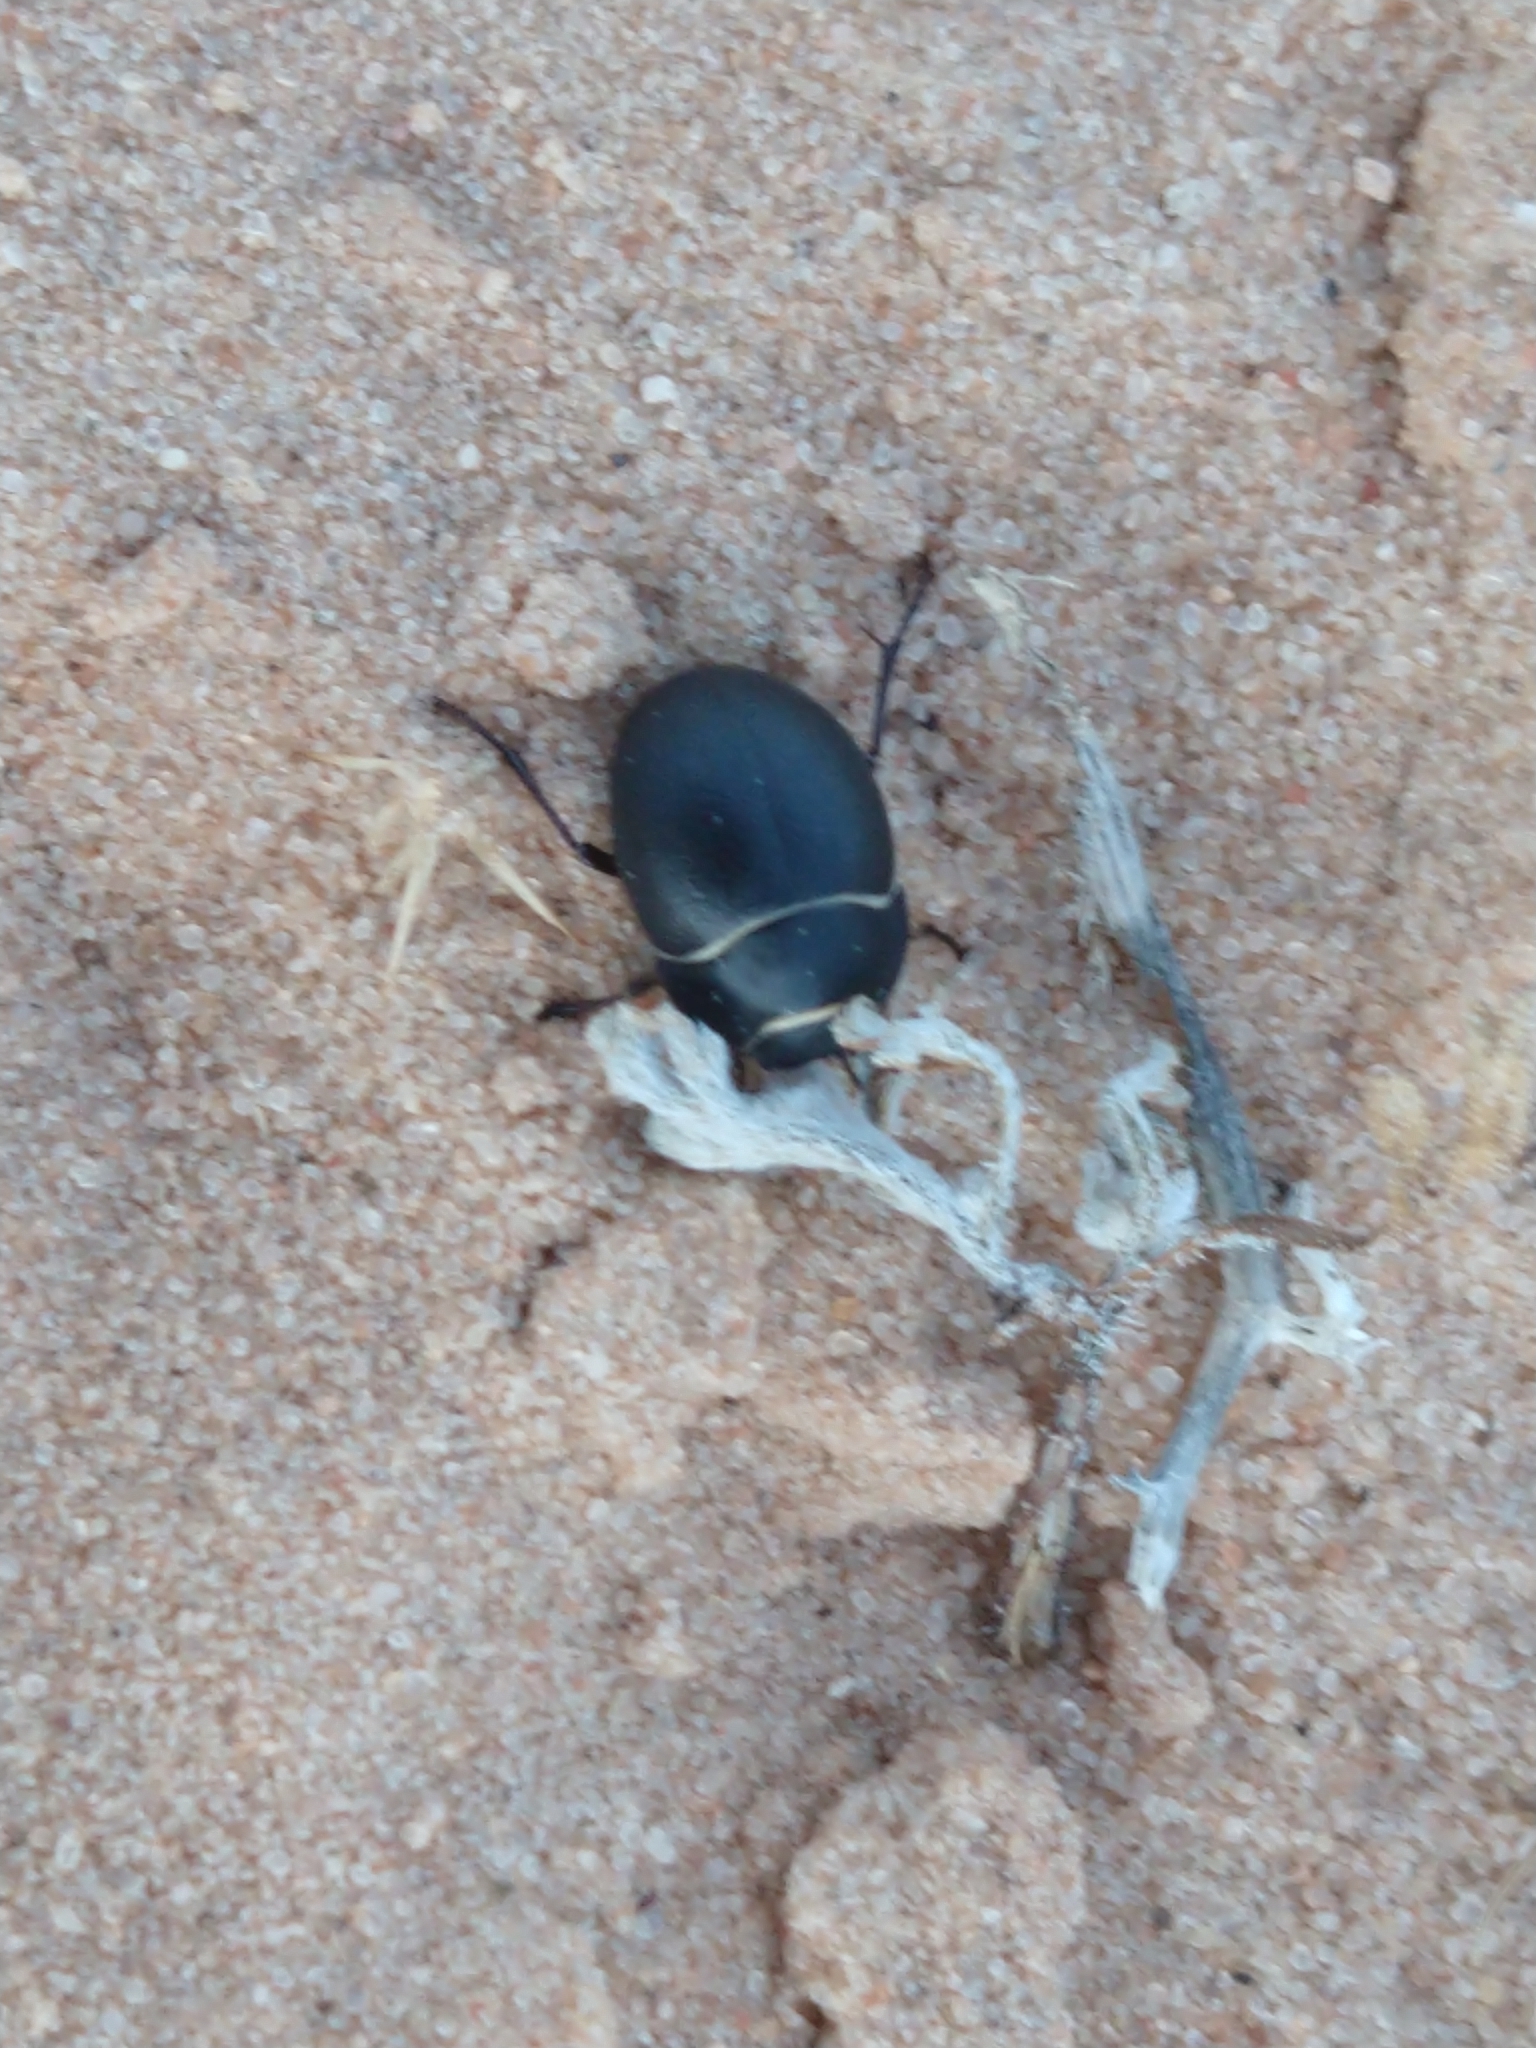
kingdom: Animalia
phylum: Arthropoda
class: Insecta
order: Coleoptera
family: Tenebrionidae
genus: Eusattus
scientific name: Eusattus muricatus
